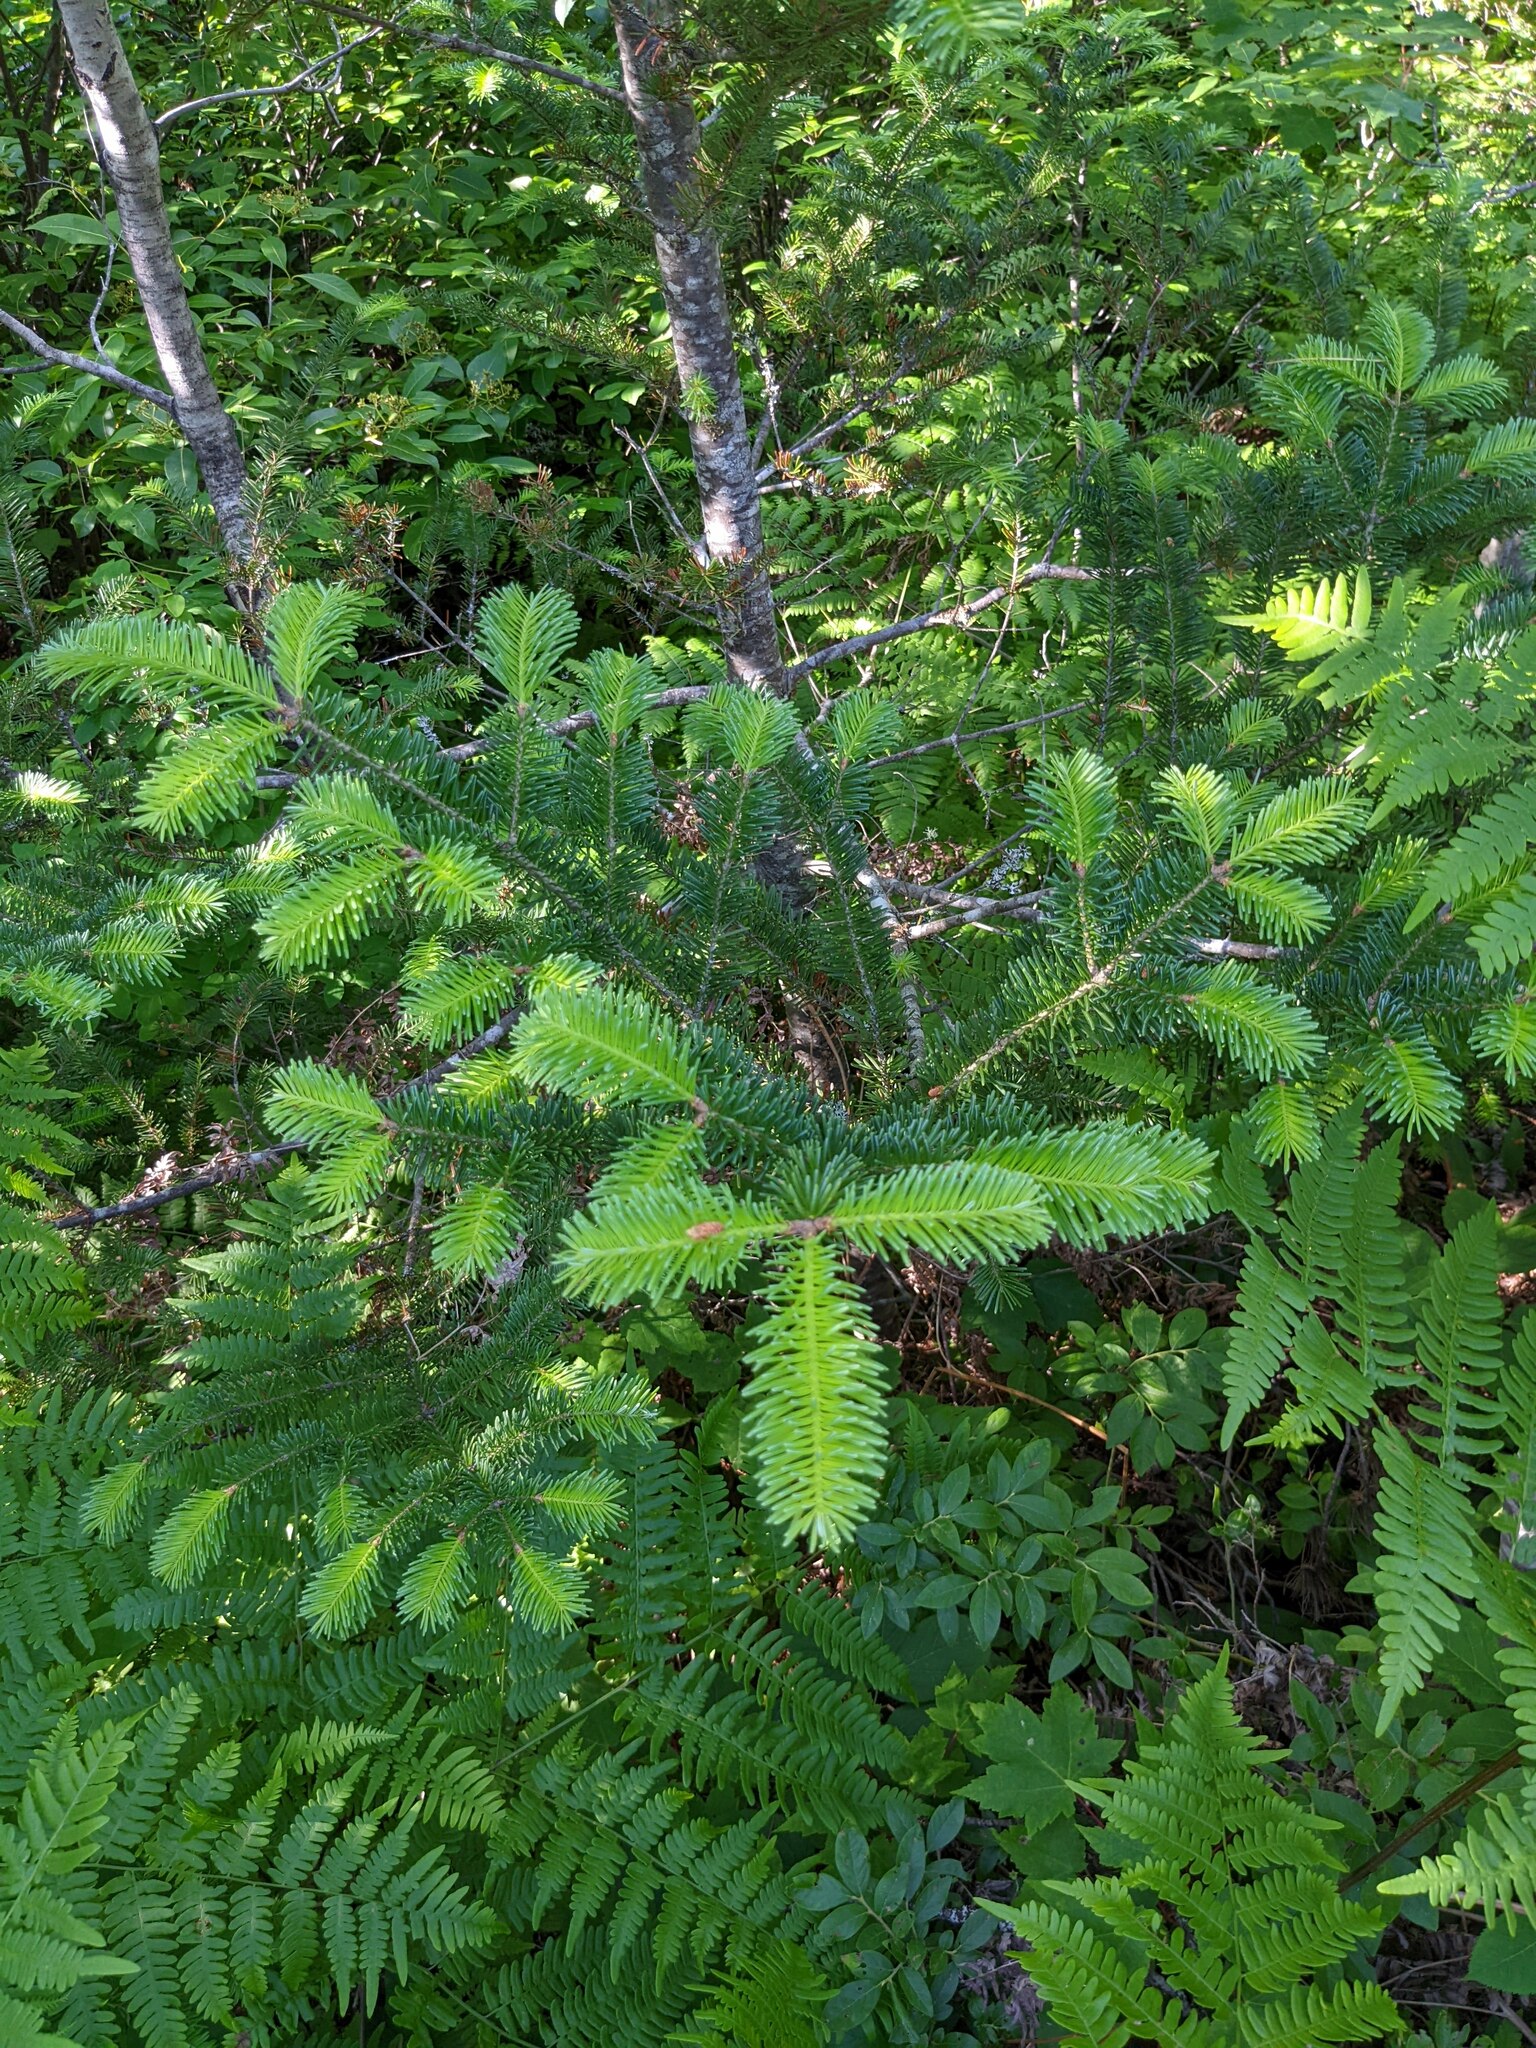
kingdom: Plantae
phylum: Tracheophyta
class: Pinopsida
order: Pinales
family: Pinaceae
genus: Abies
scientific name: Abies balsamea
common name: Balsam fir
